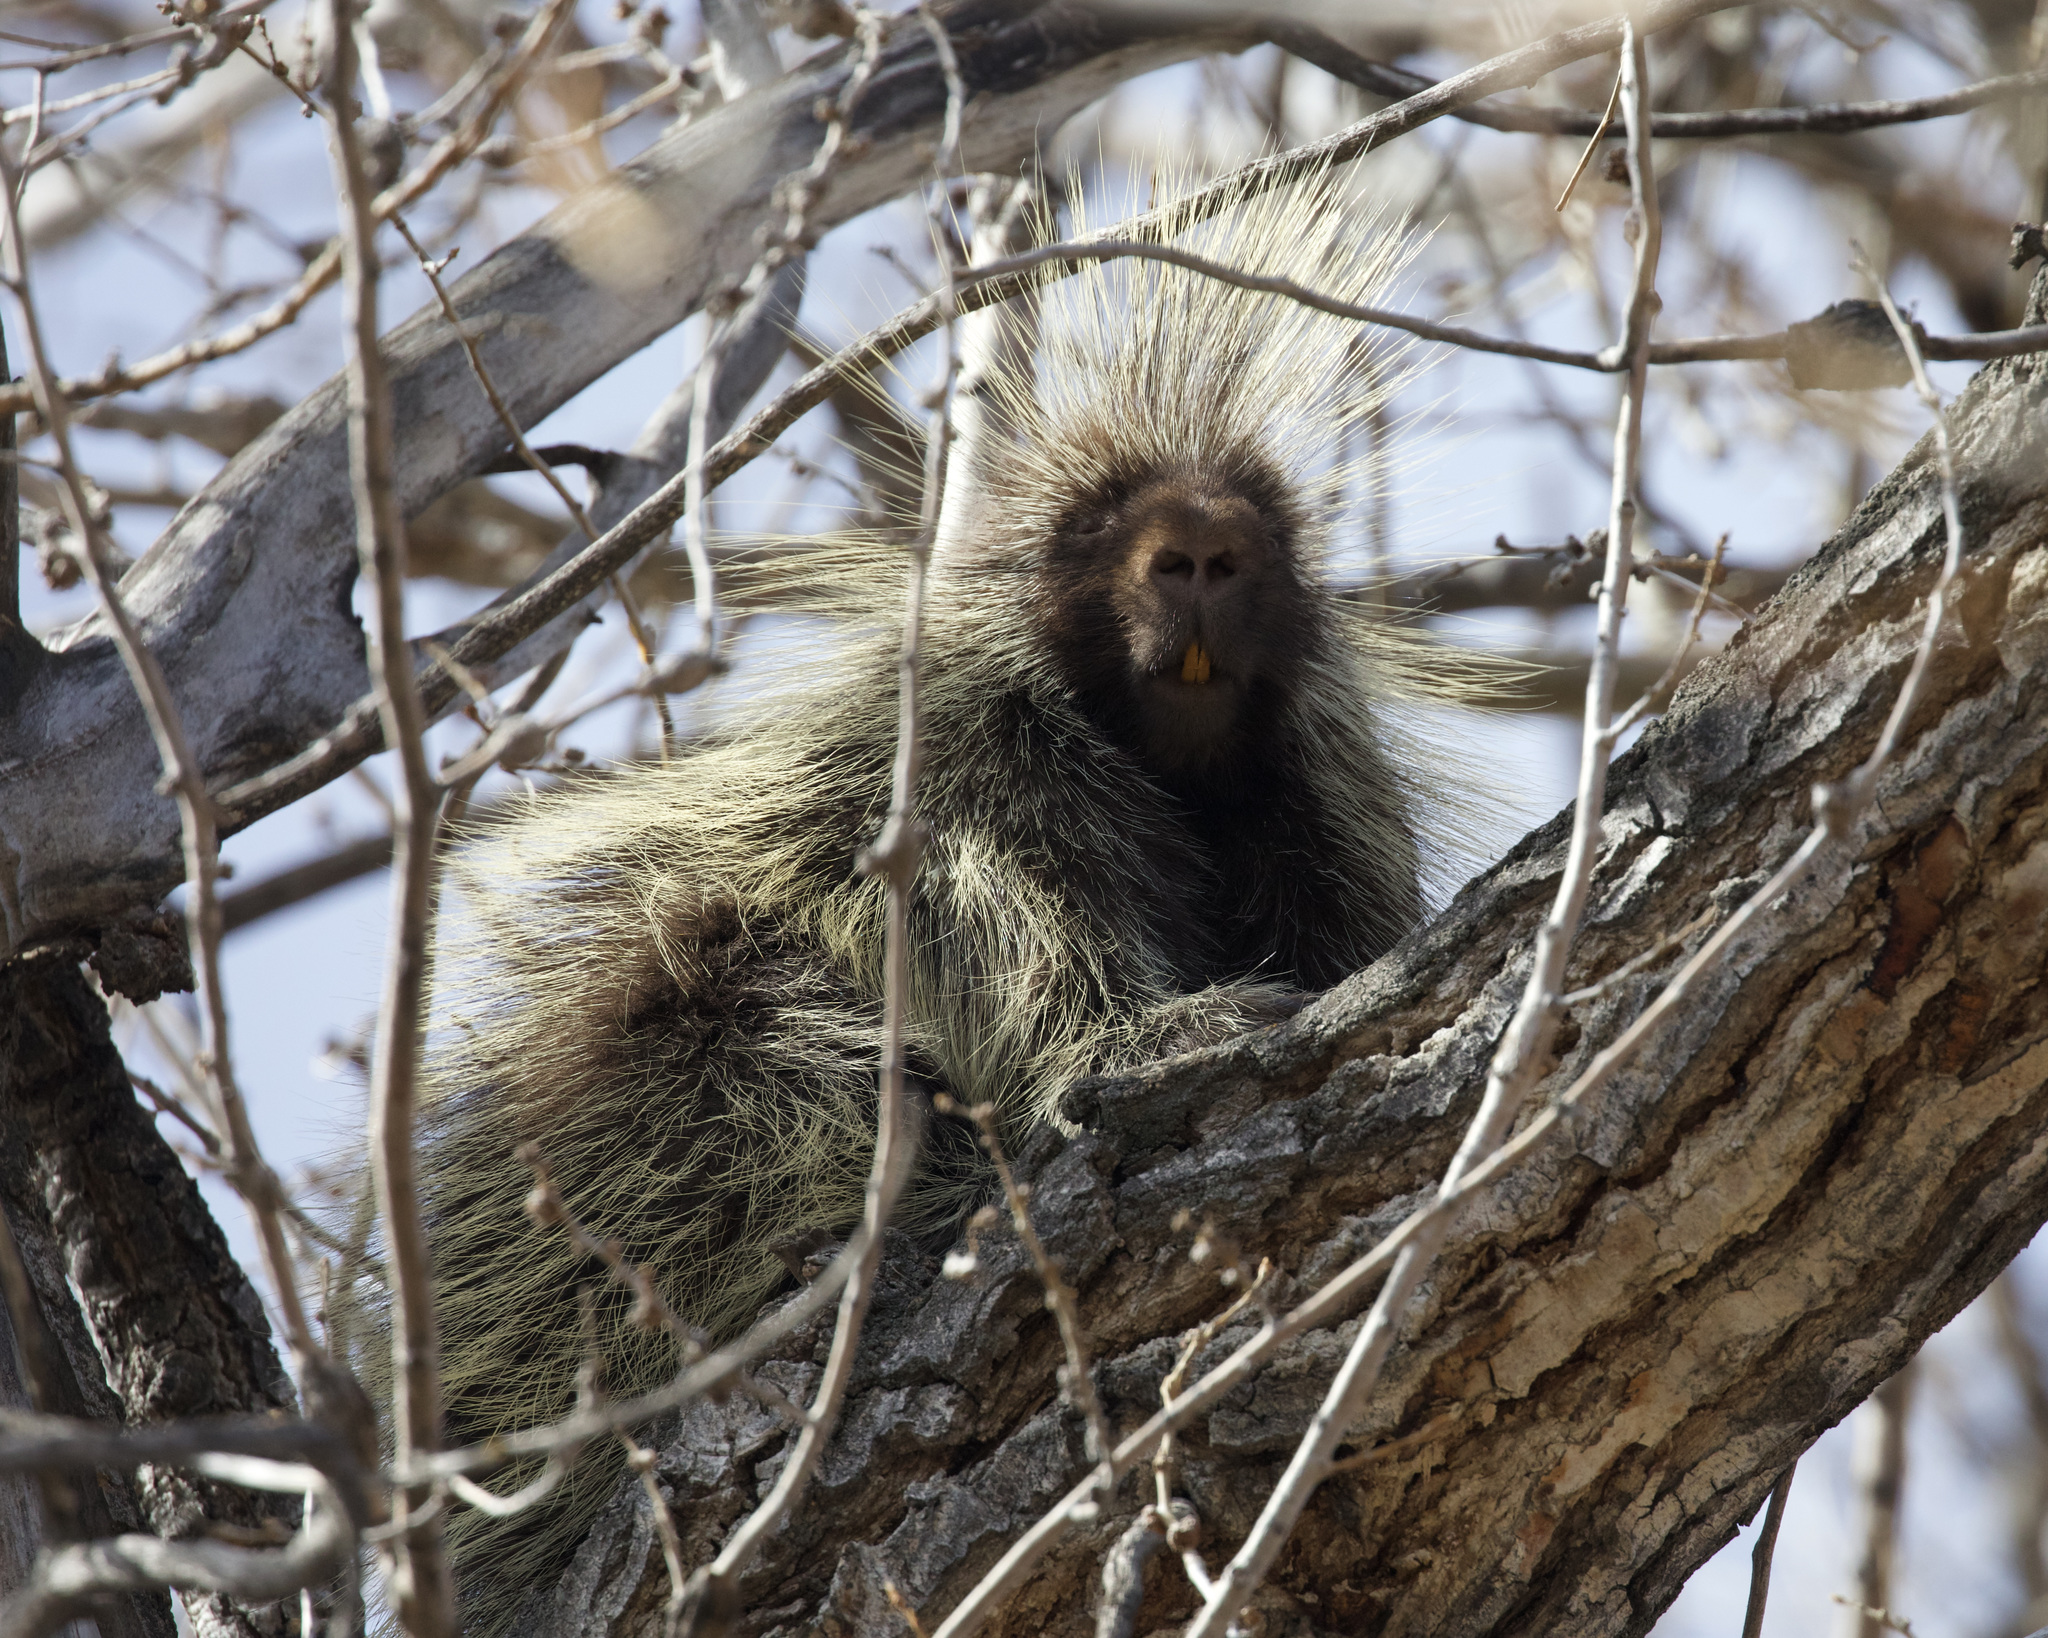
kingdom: Animalia
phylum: Chordata
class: Mammalia
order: Rodentia
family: Erethizontidae
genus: Erethizon
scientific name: Erethizon dorsatus
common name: North american porcupine
